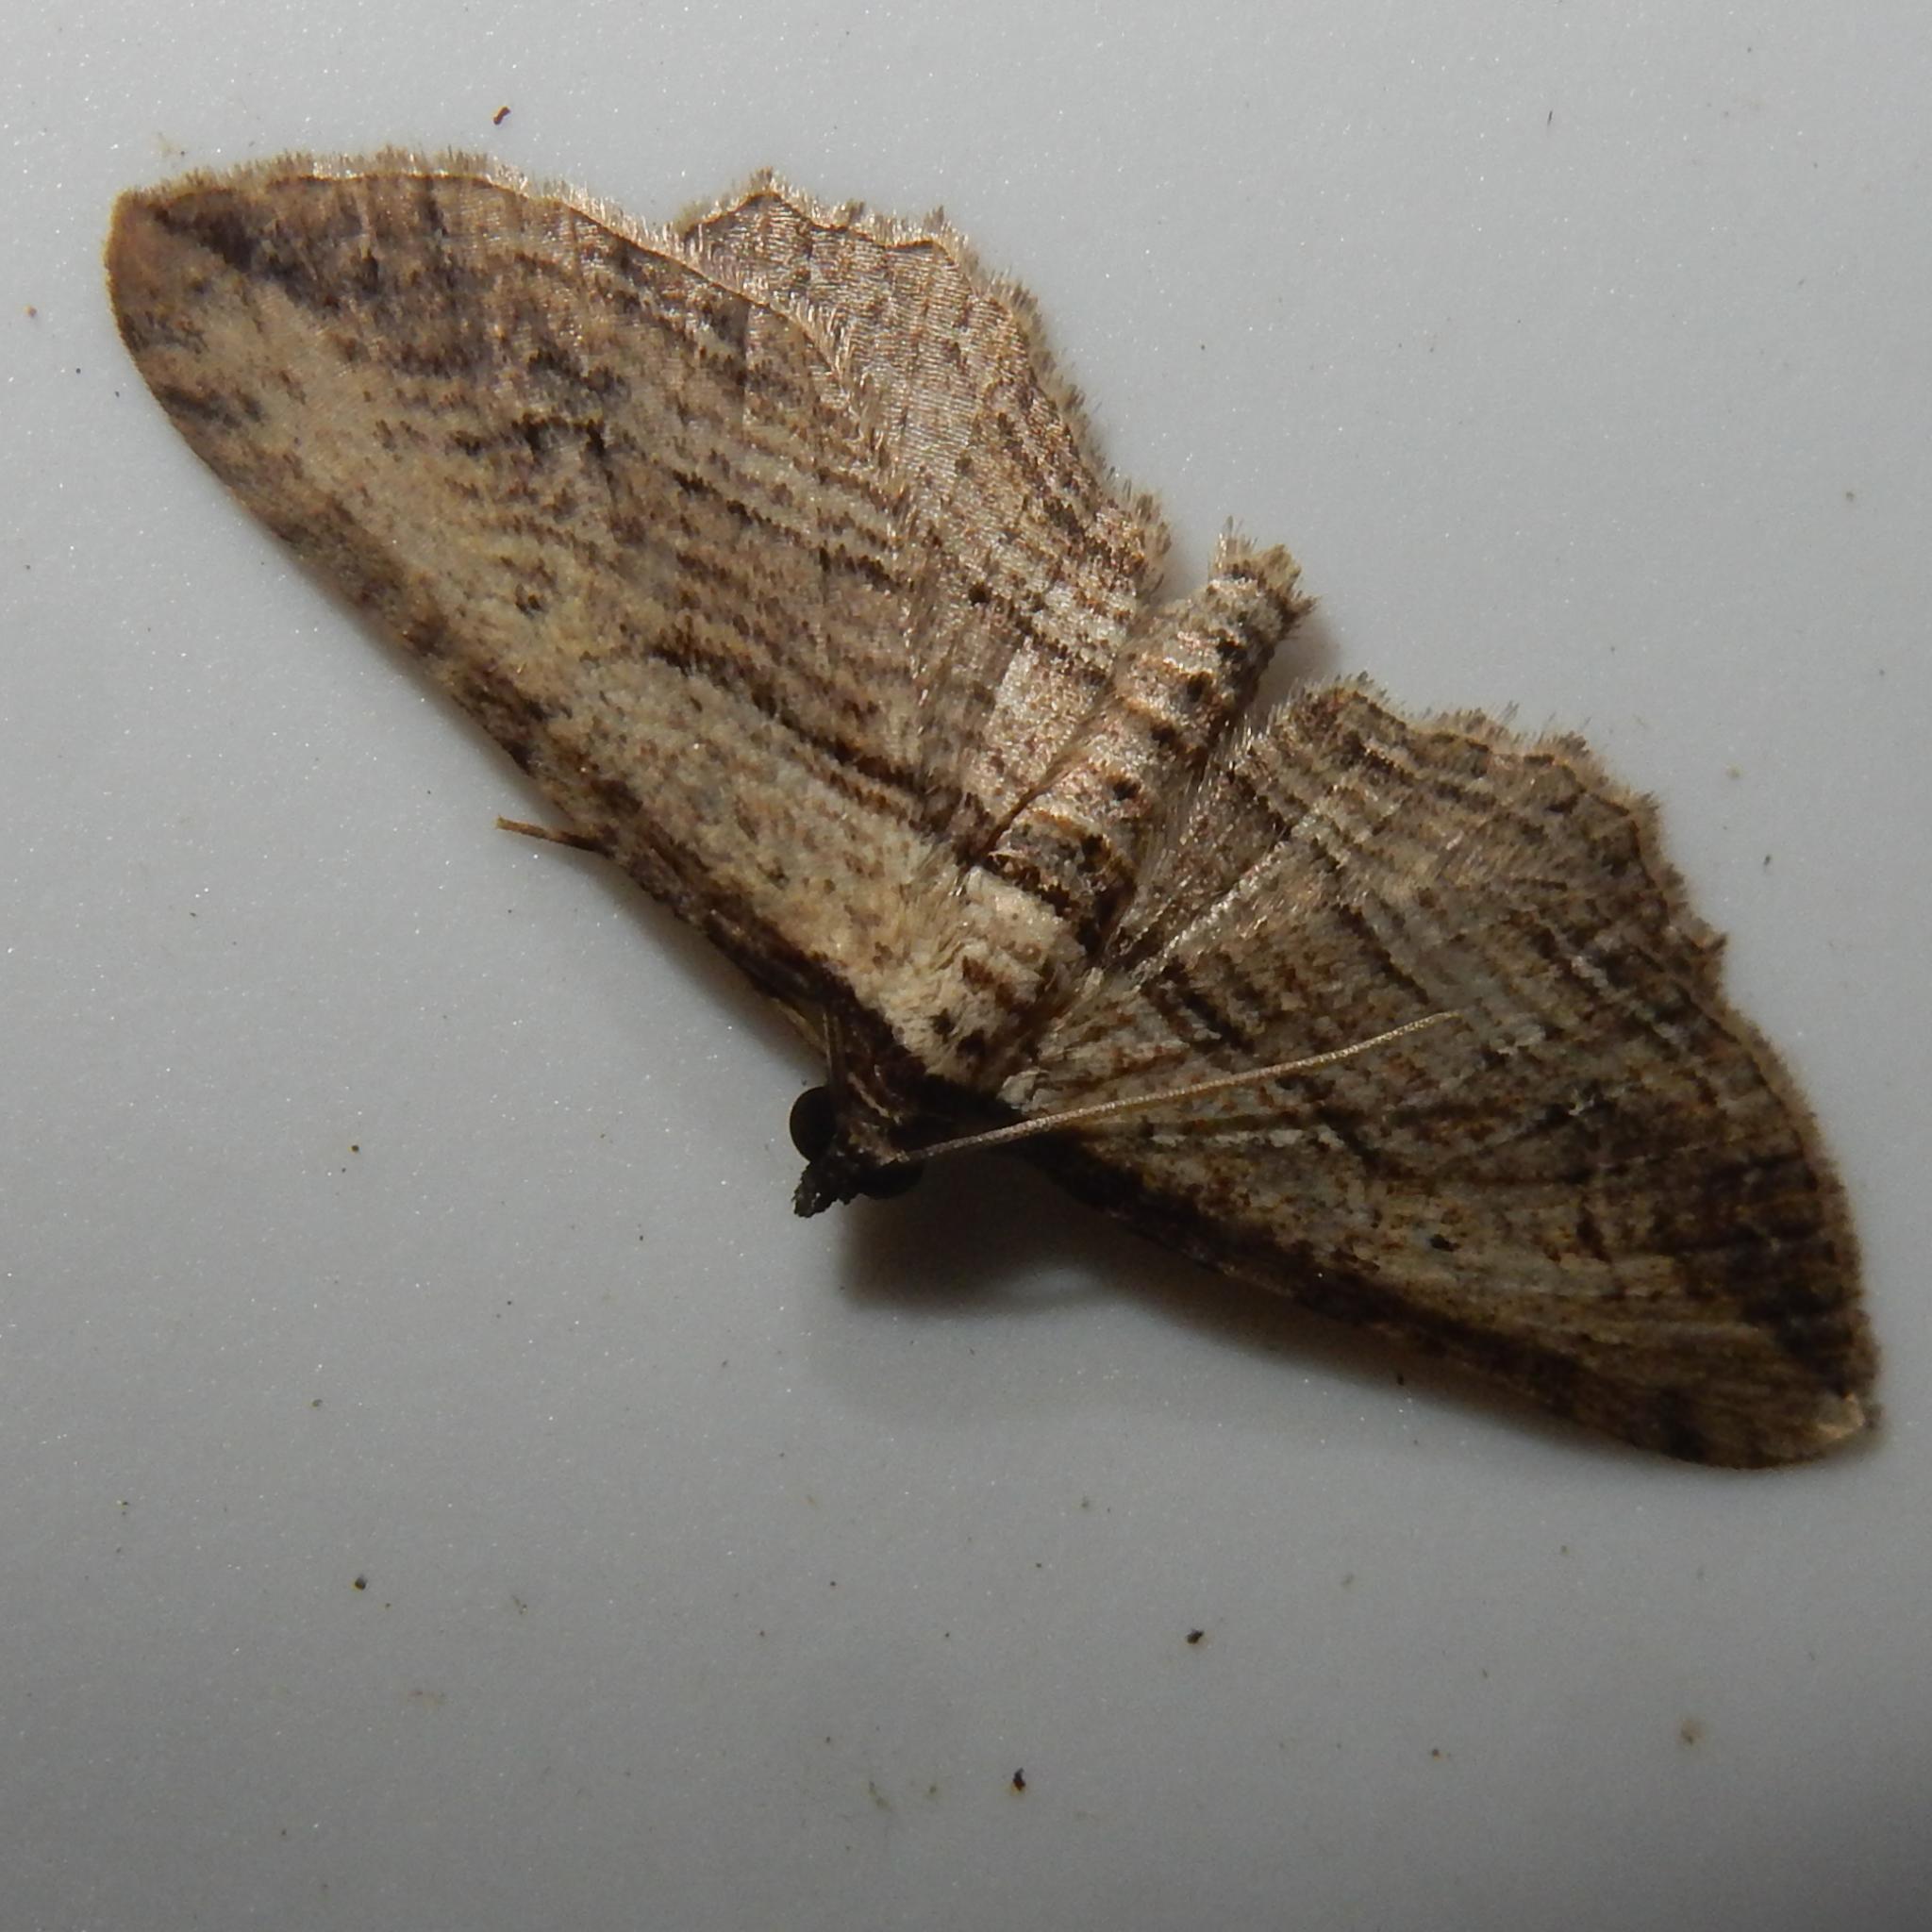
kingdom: Animalia
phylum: Arthropoda
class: Insecta
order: Lepidoptera
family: Geometridae
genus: Horisme
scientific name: Horisme minuata
